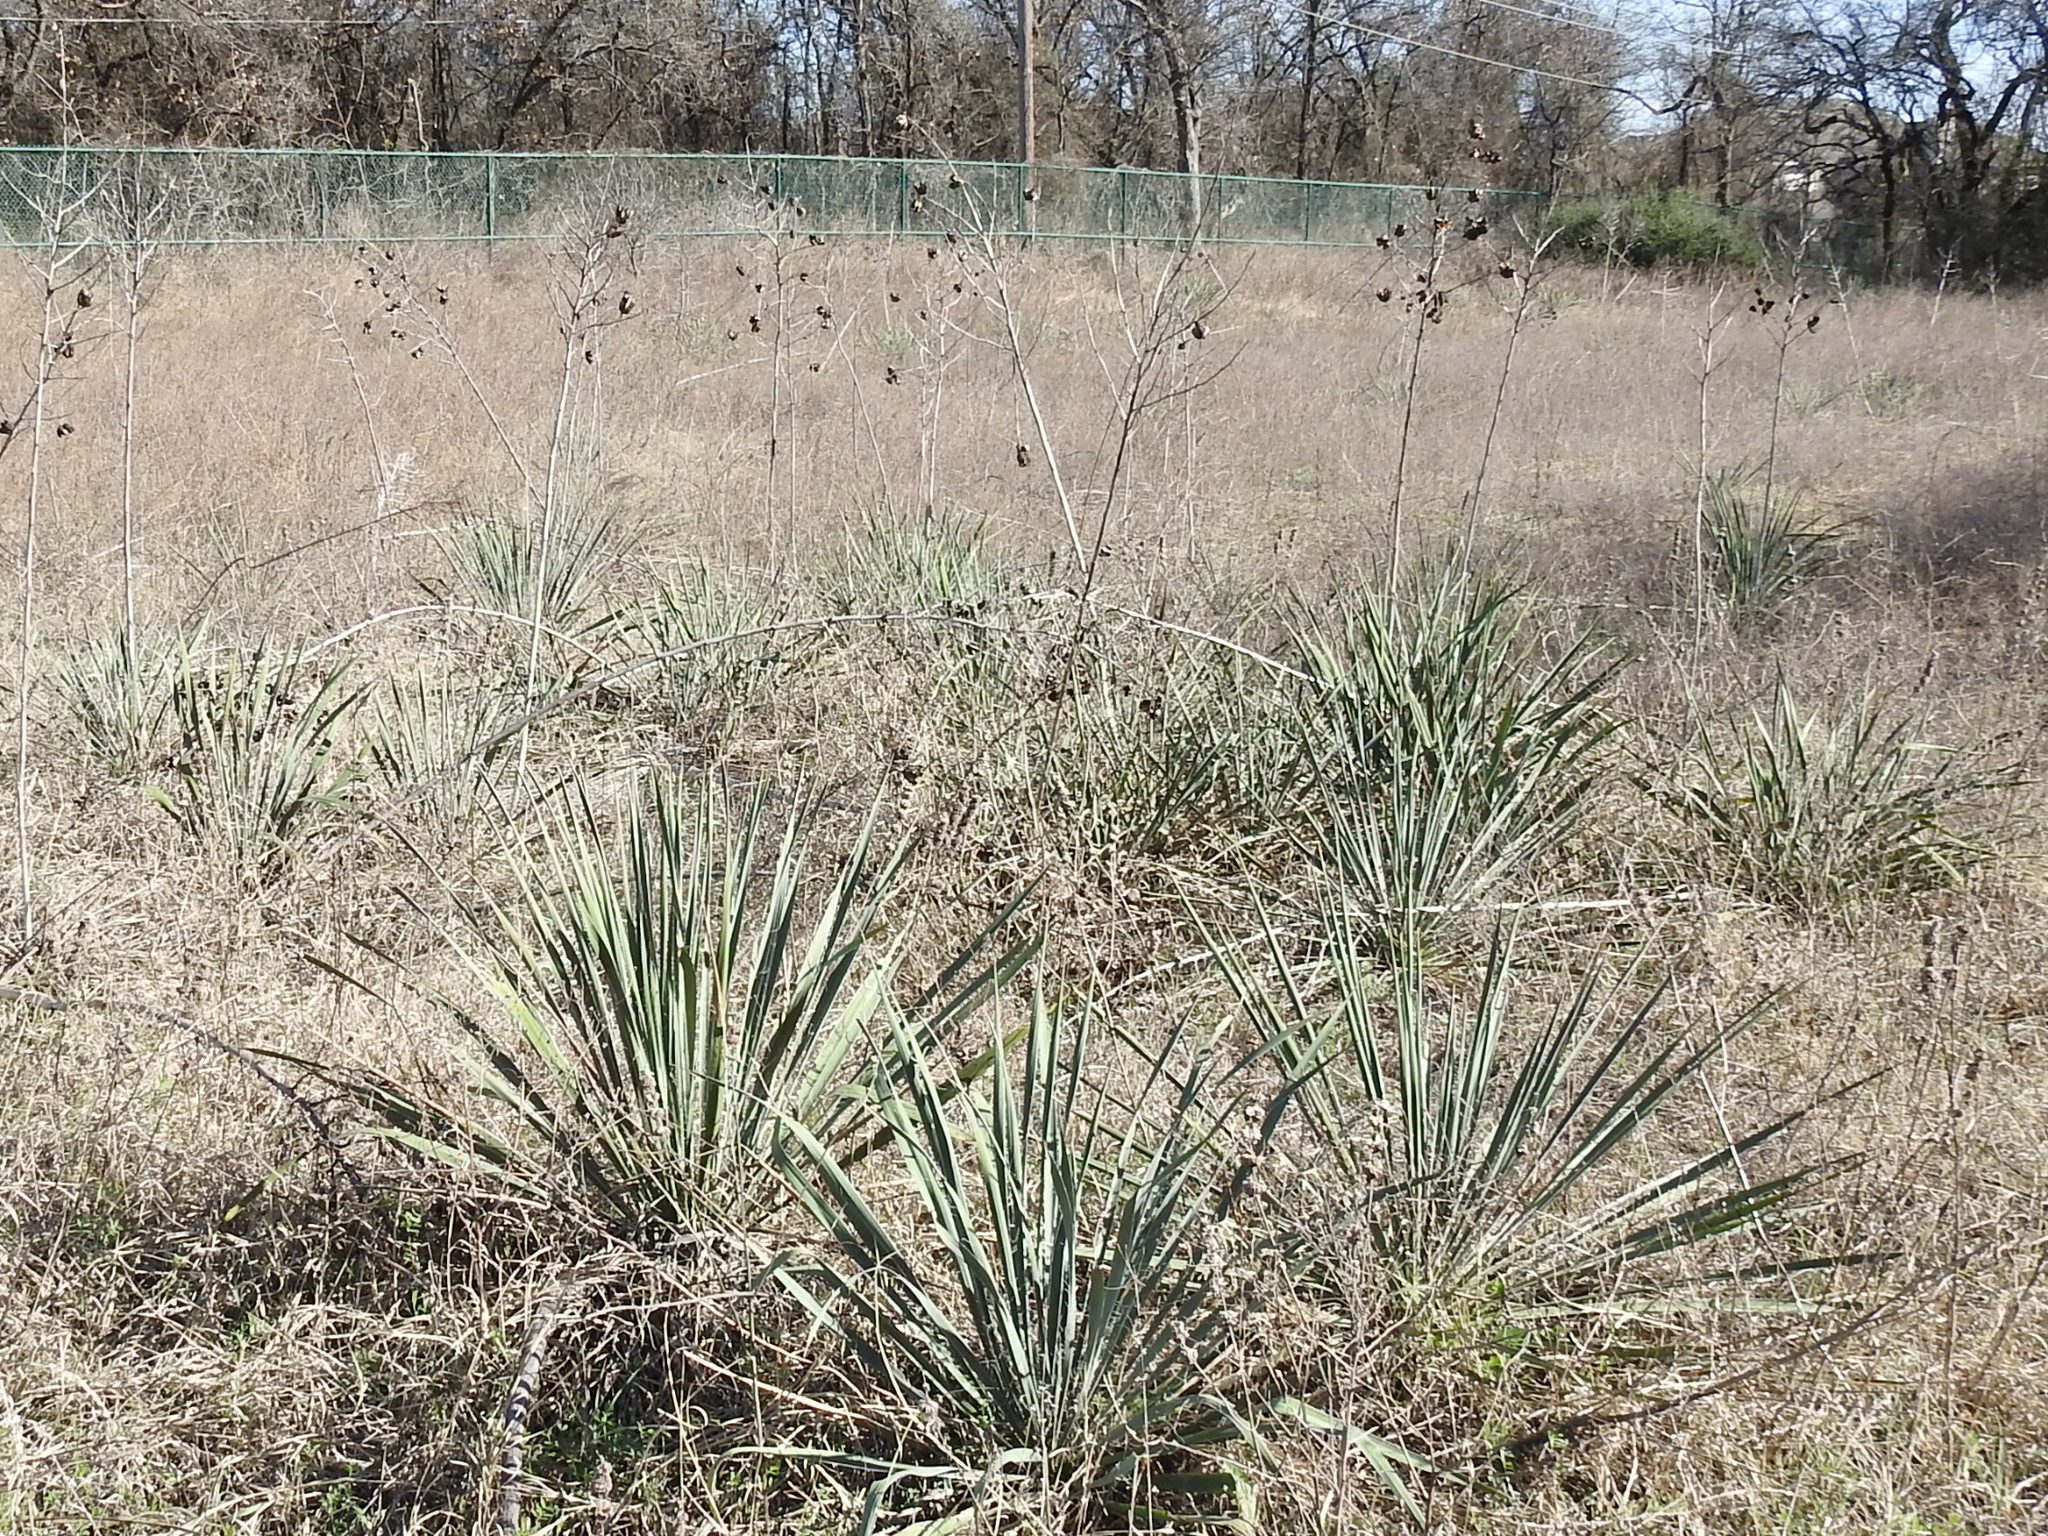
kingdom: Plantae
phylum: Tracheophyta
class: Liliopsida
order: Asparagales
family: Asparagaceae
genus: Yucca
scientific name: Yucca necopina
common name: Glen rose yucca
